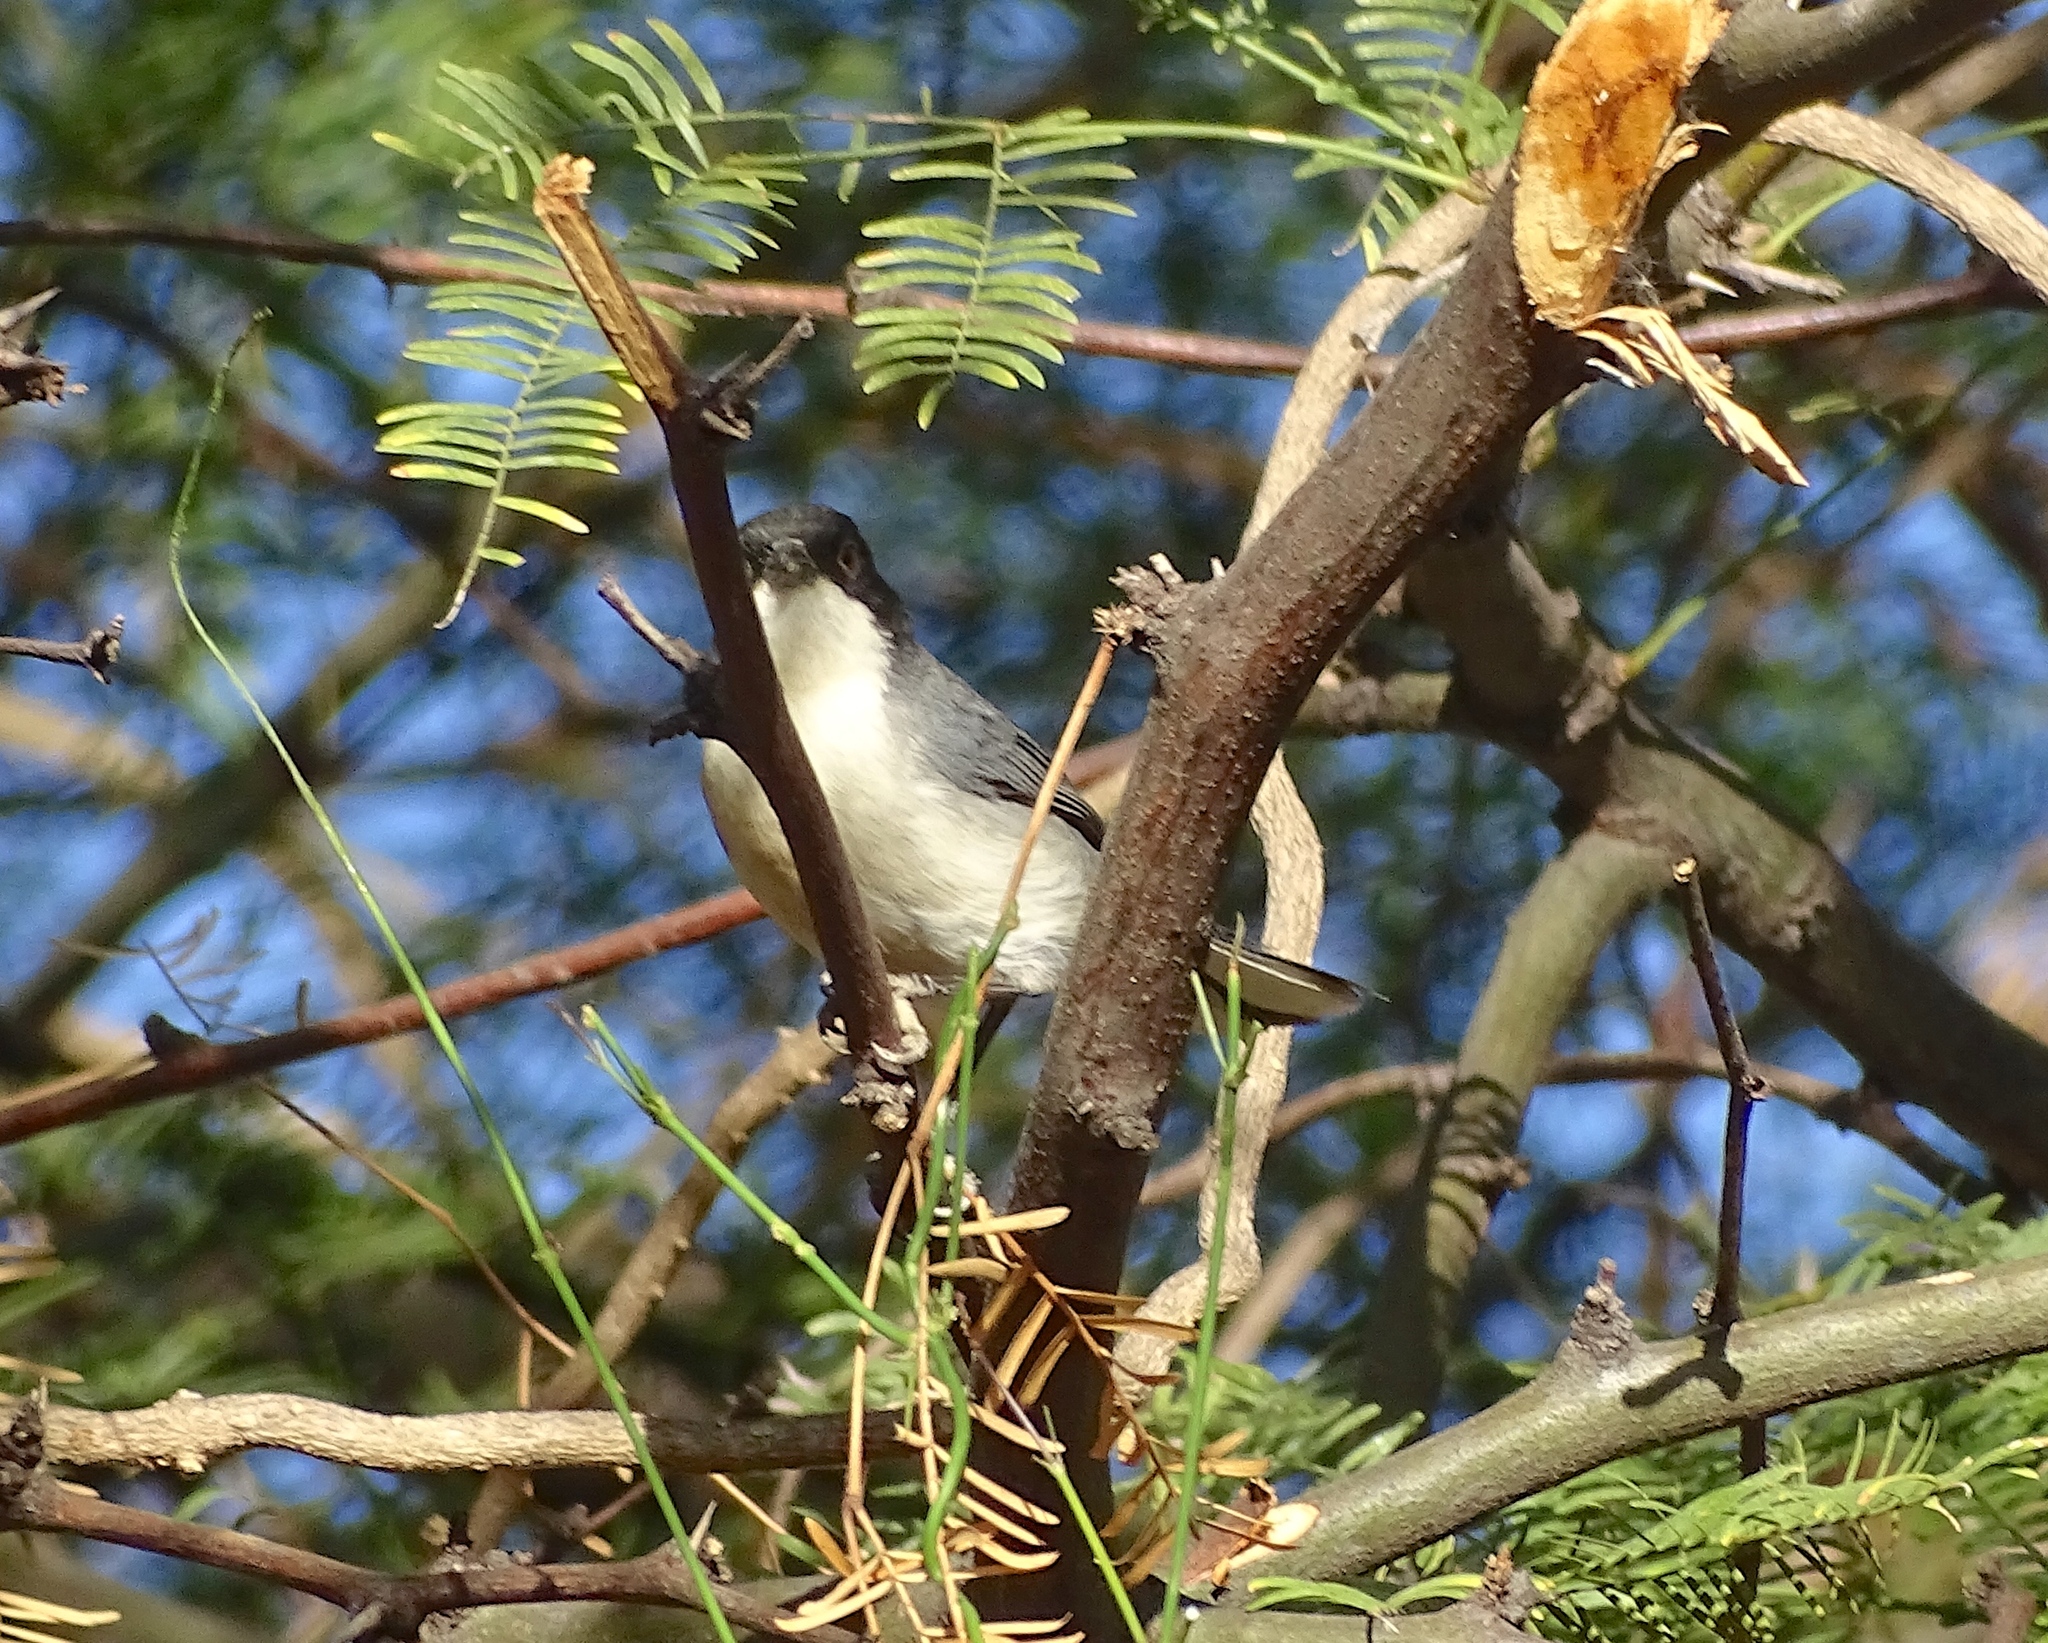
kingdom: Animalia
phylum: Chordata
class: Aves
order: Passeriformes
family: Thraupidae
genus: Microspingus
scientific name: Microspingus melanoleucus
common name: Black-capped warbling-finch
